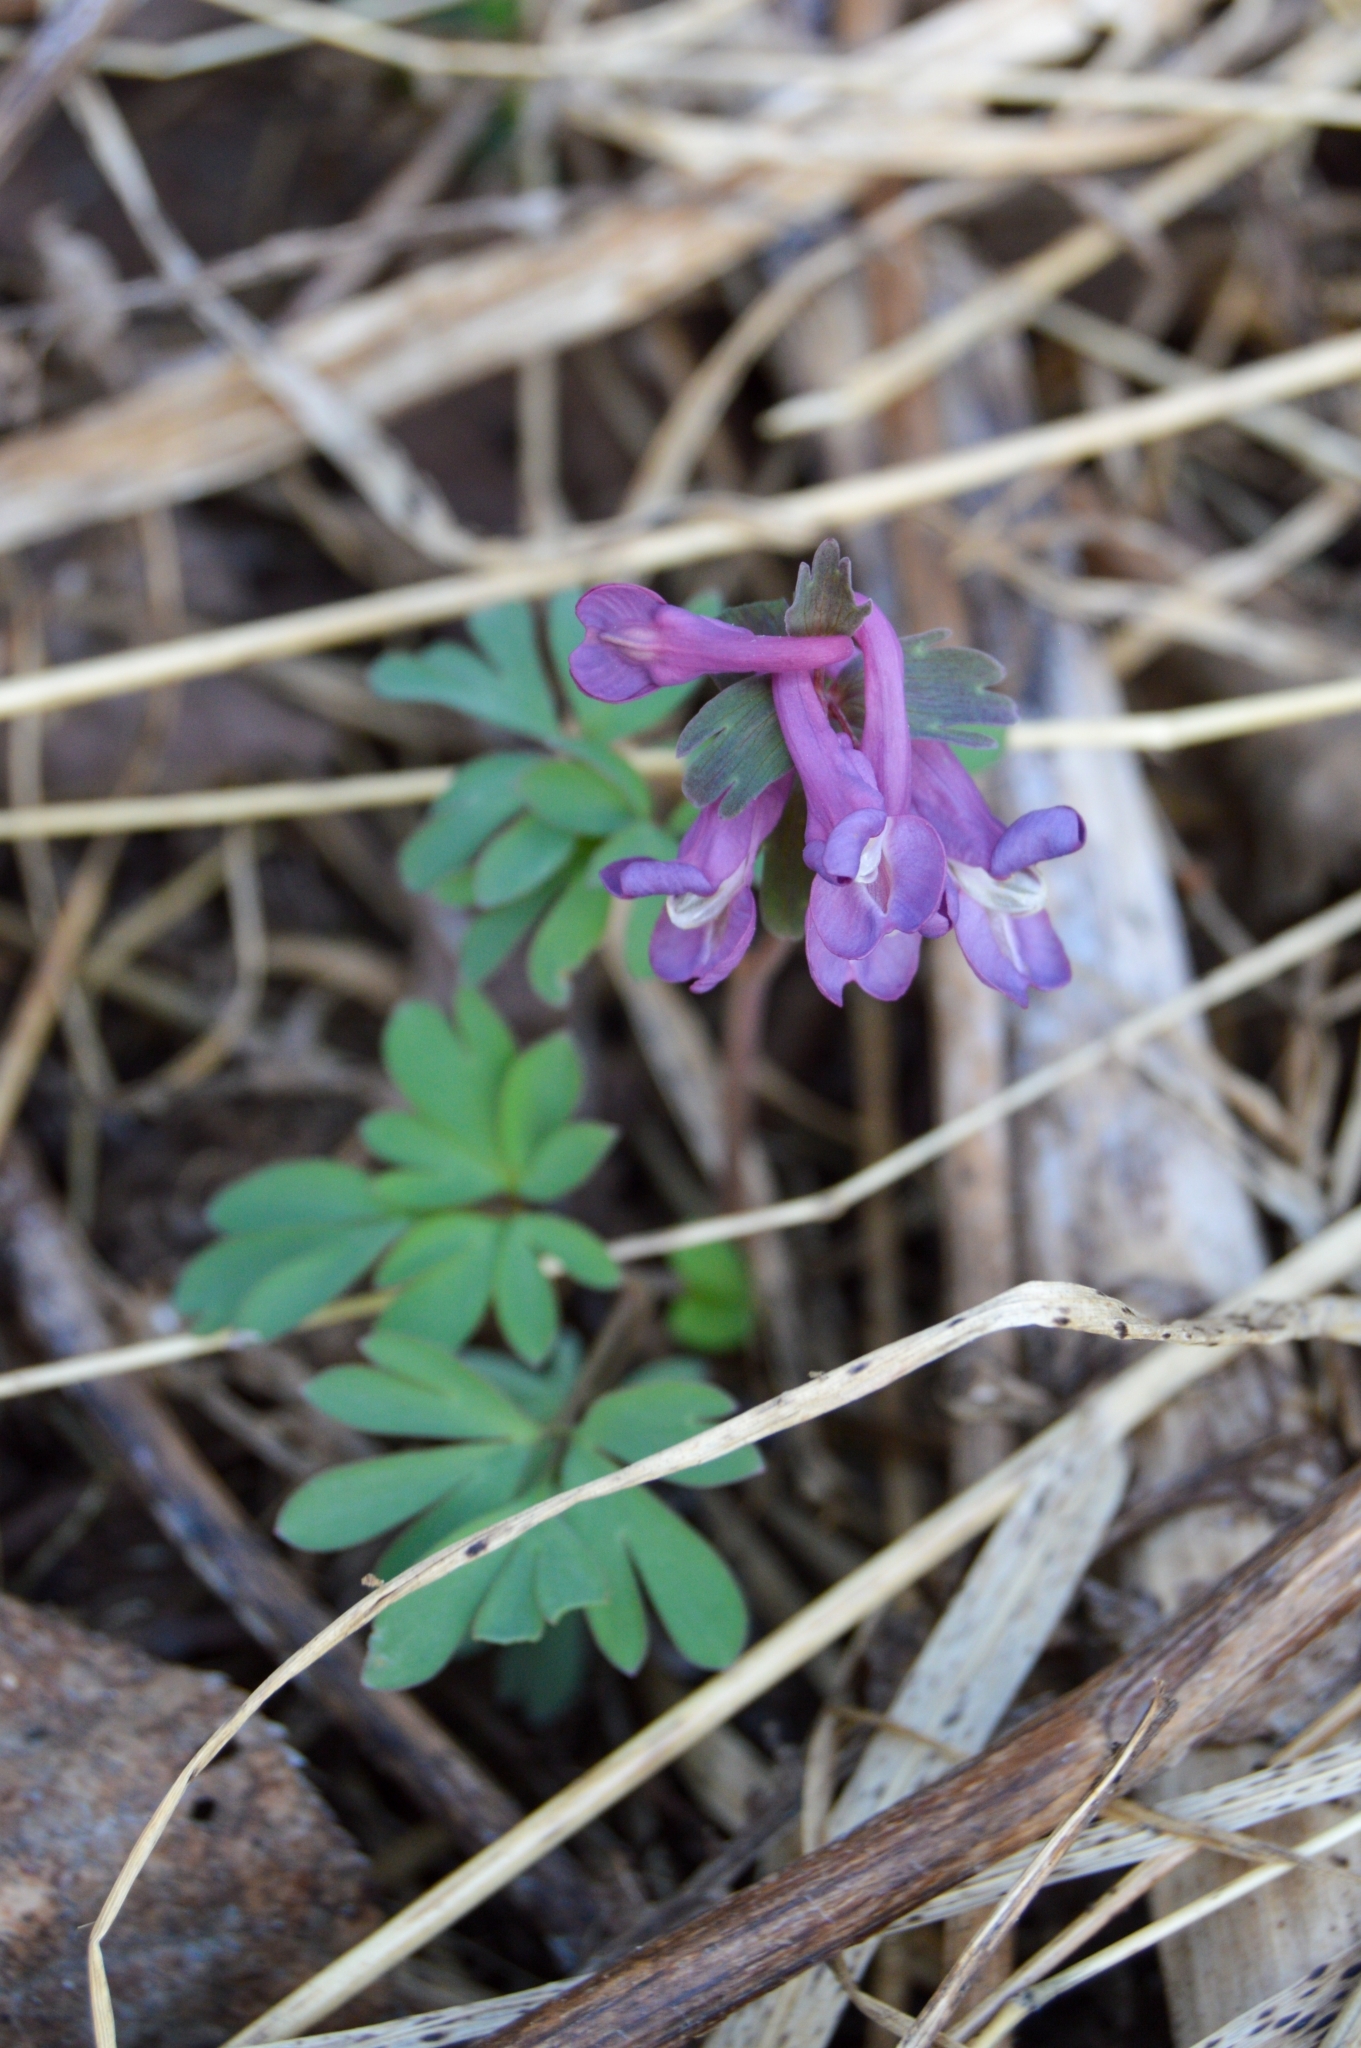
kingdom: Plantae
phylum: Tracheophyta
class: Magnoliopsida
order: Ranunculales
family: Papaveraceae
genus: Corydalis
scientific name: Corydalis solida
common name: Bird-in-a-bush
